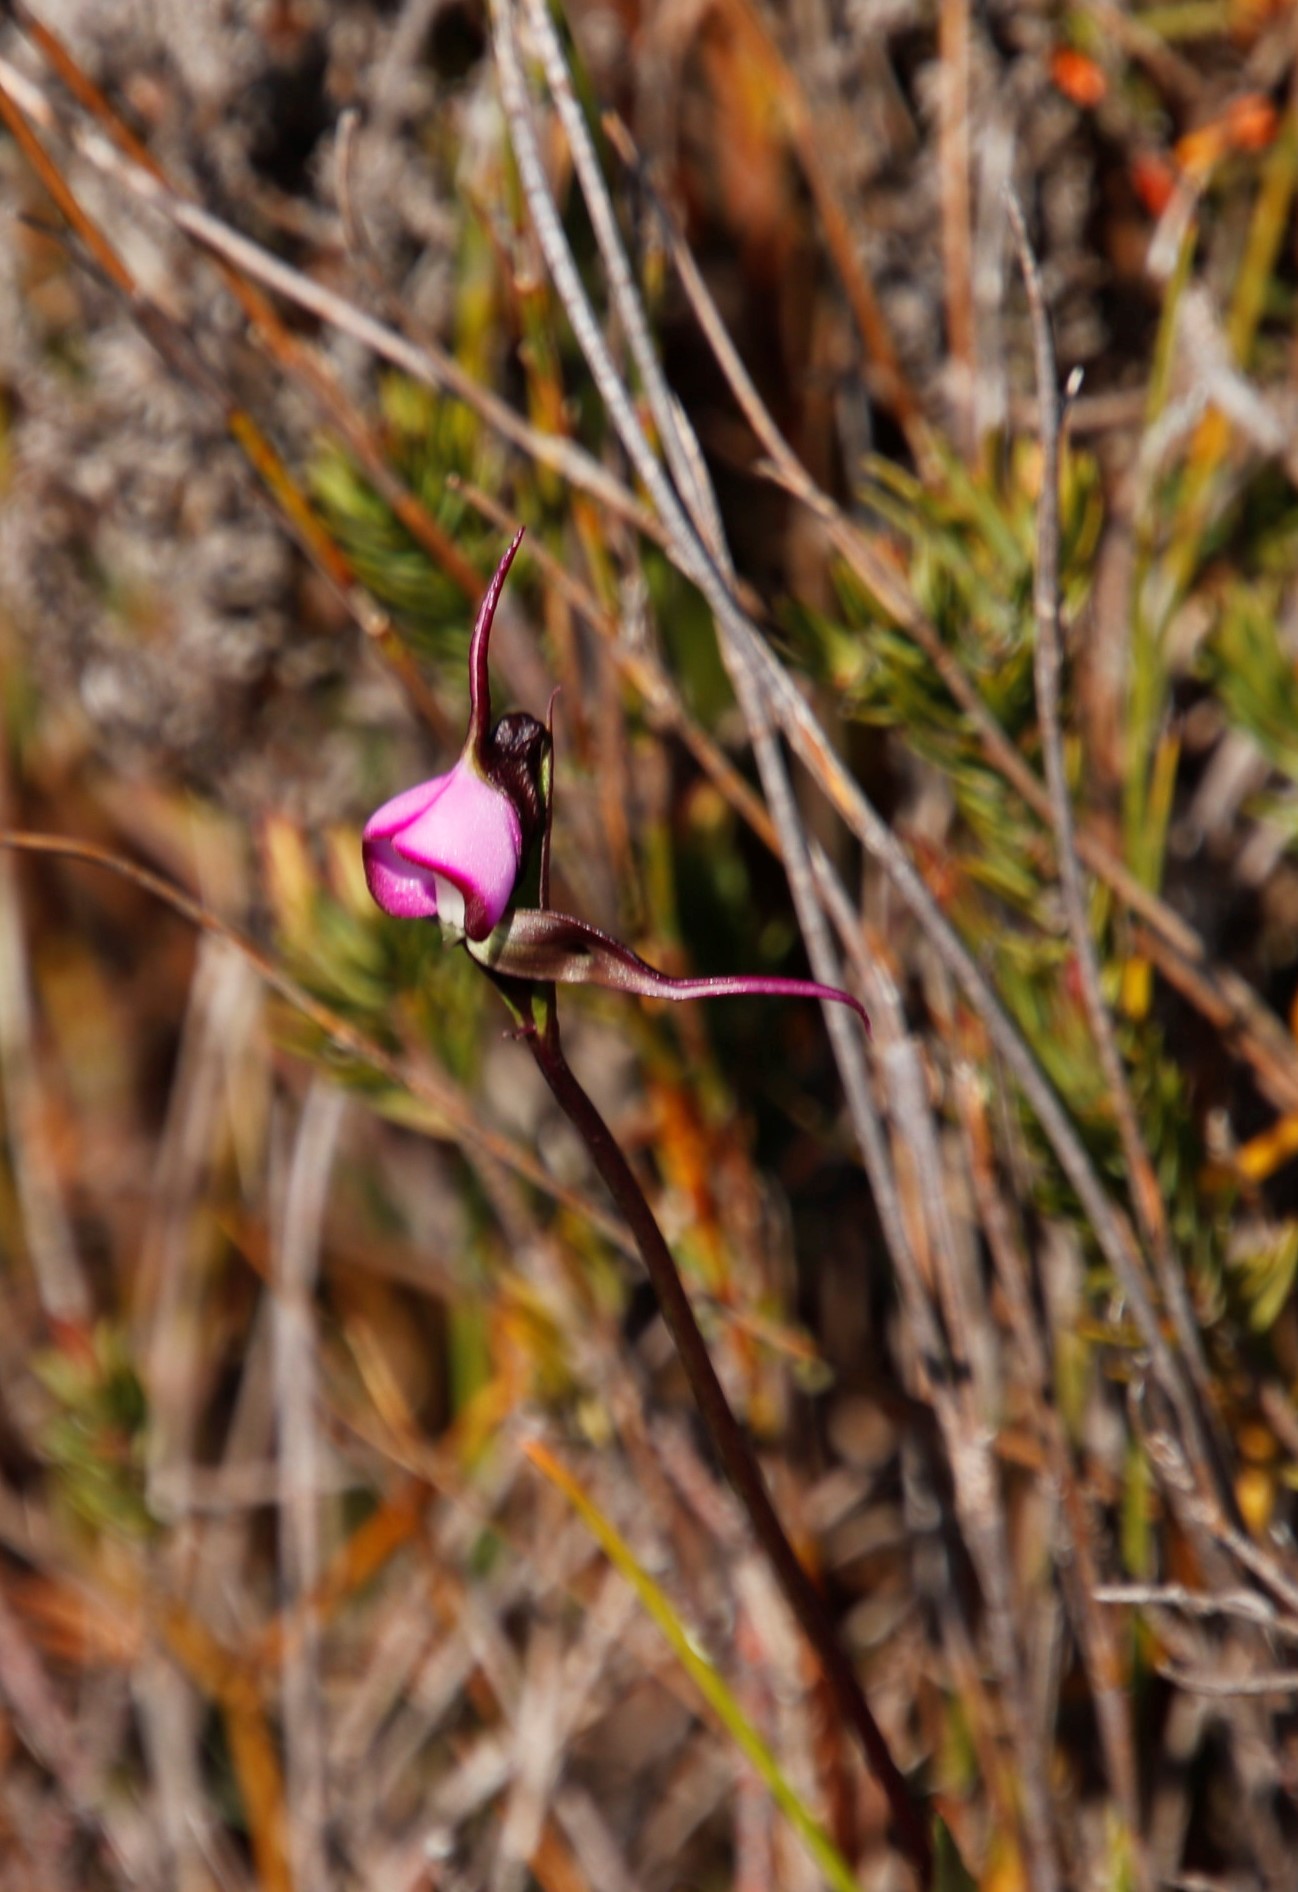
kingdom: Plantae
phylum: Tracheophyta
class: Liliopsida
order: Asparagales
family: Orchidaceae
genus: Disperis
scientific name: Disperis capensis
